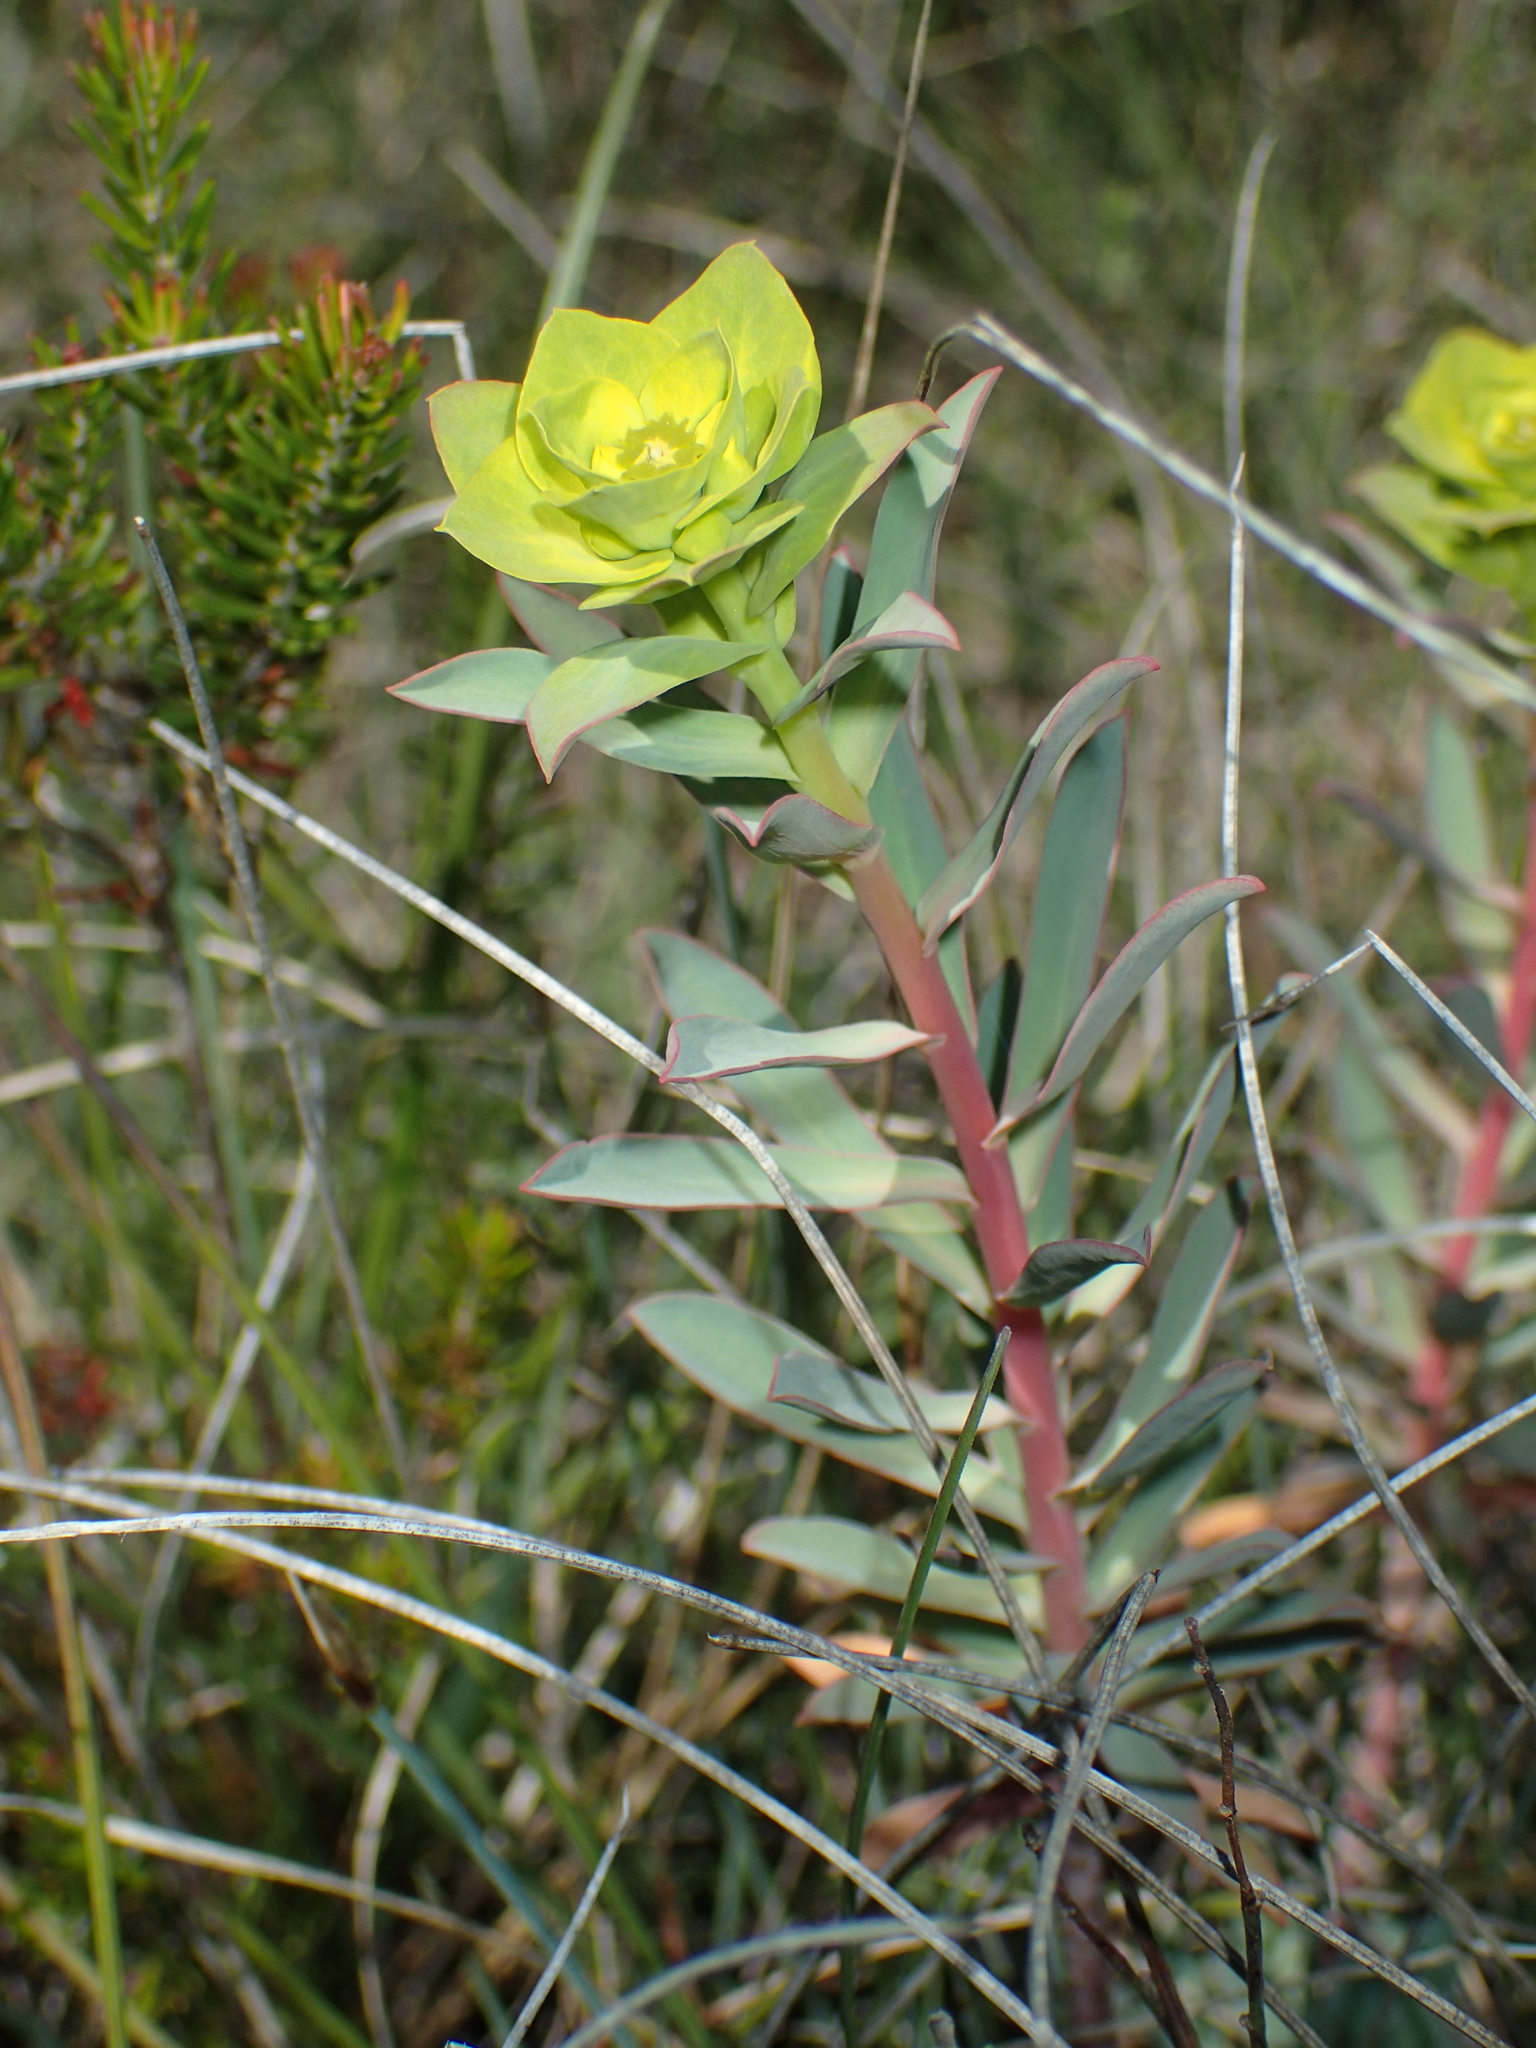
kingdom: Plantae
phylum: Tracheophyta
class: Magnoliopsida
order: Malpighiales
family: Euphorbiaceae
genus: Euphorbia
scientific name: Euphorbia nicaeensis
